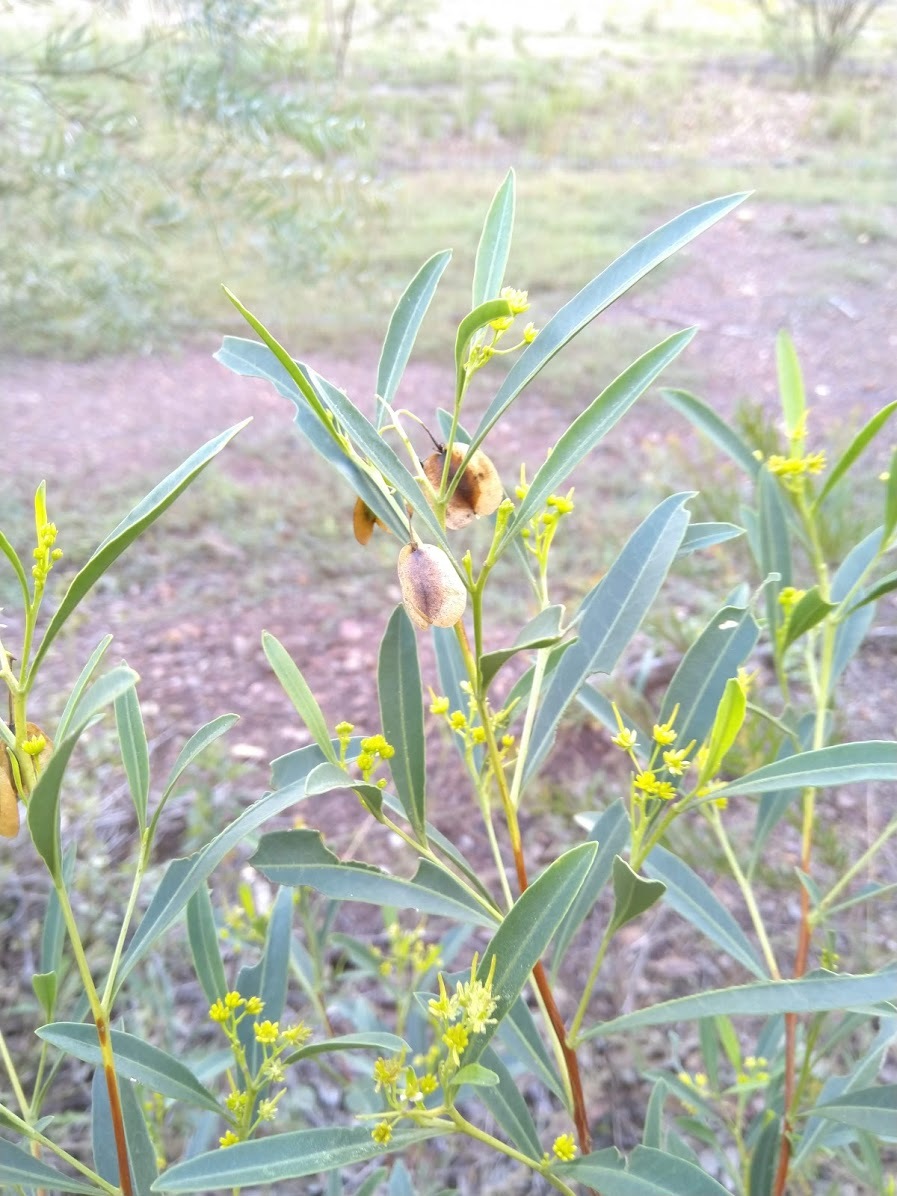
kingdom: Plantae
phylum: Tracheophyta
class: Magnoliopsida
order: Sapindales
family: Sapindaceae
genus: Dodonaea
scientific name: Dodonaea lanceolata
